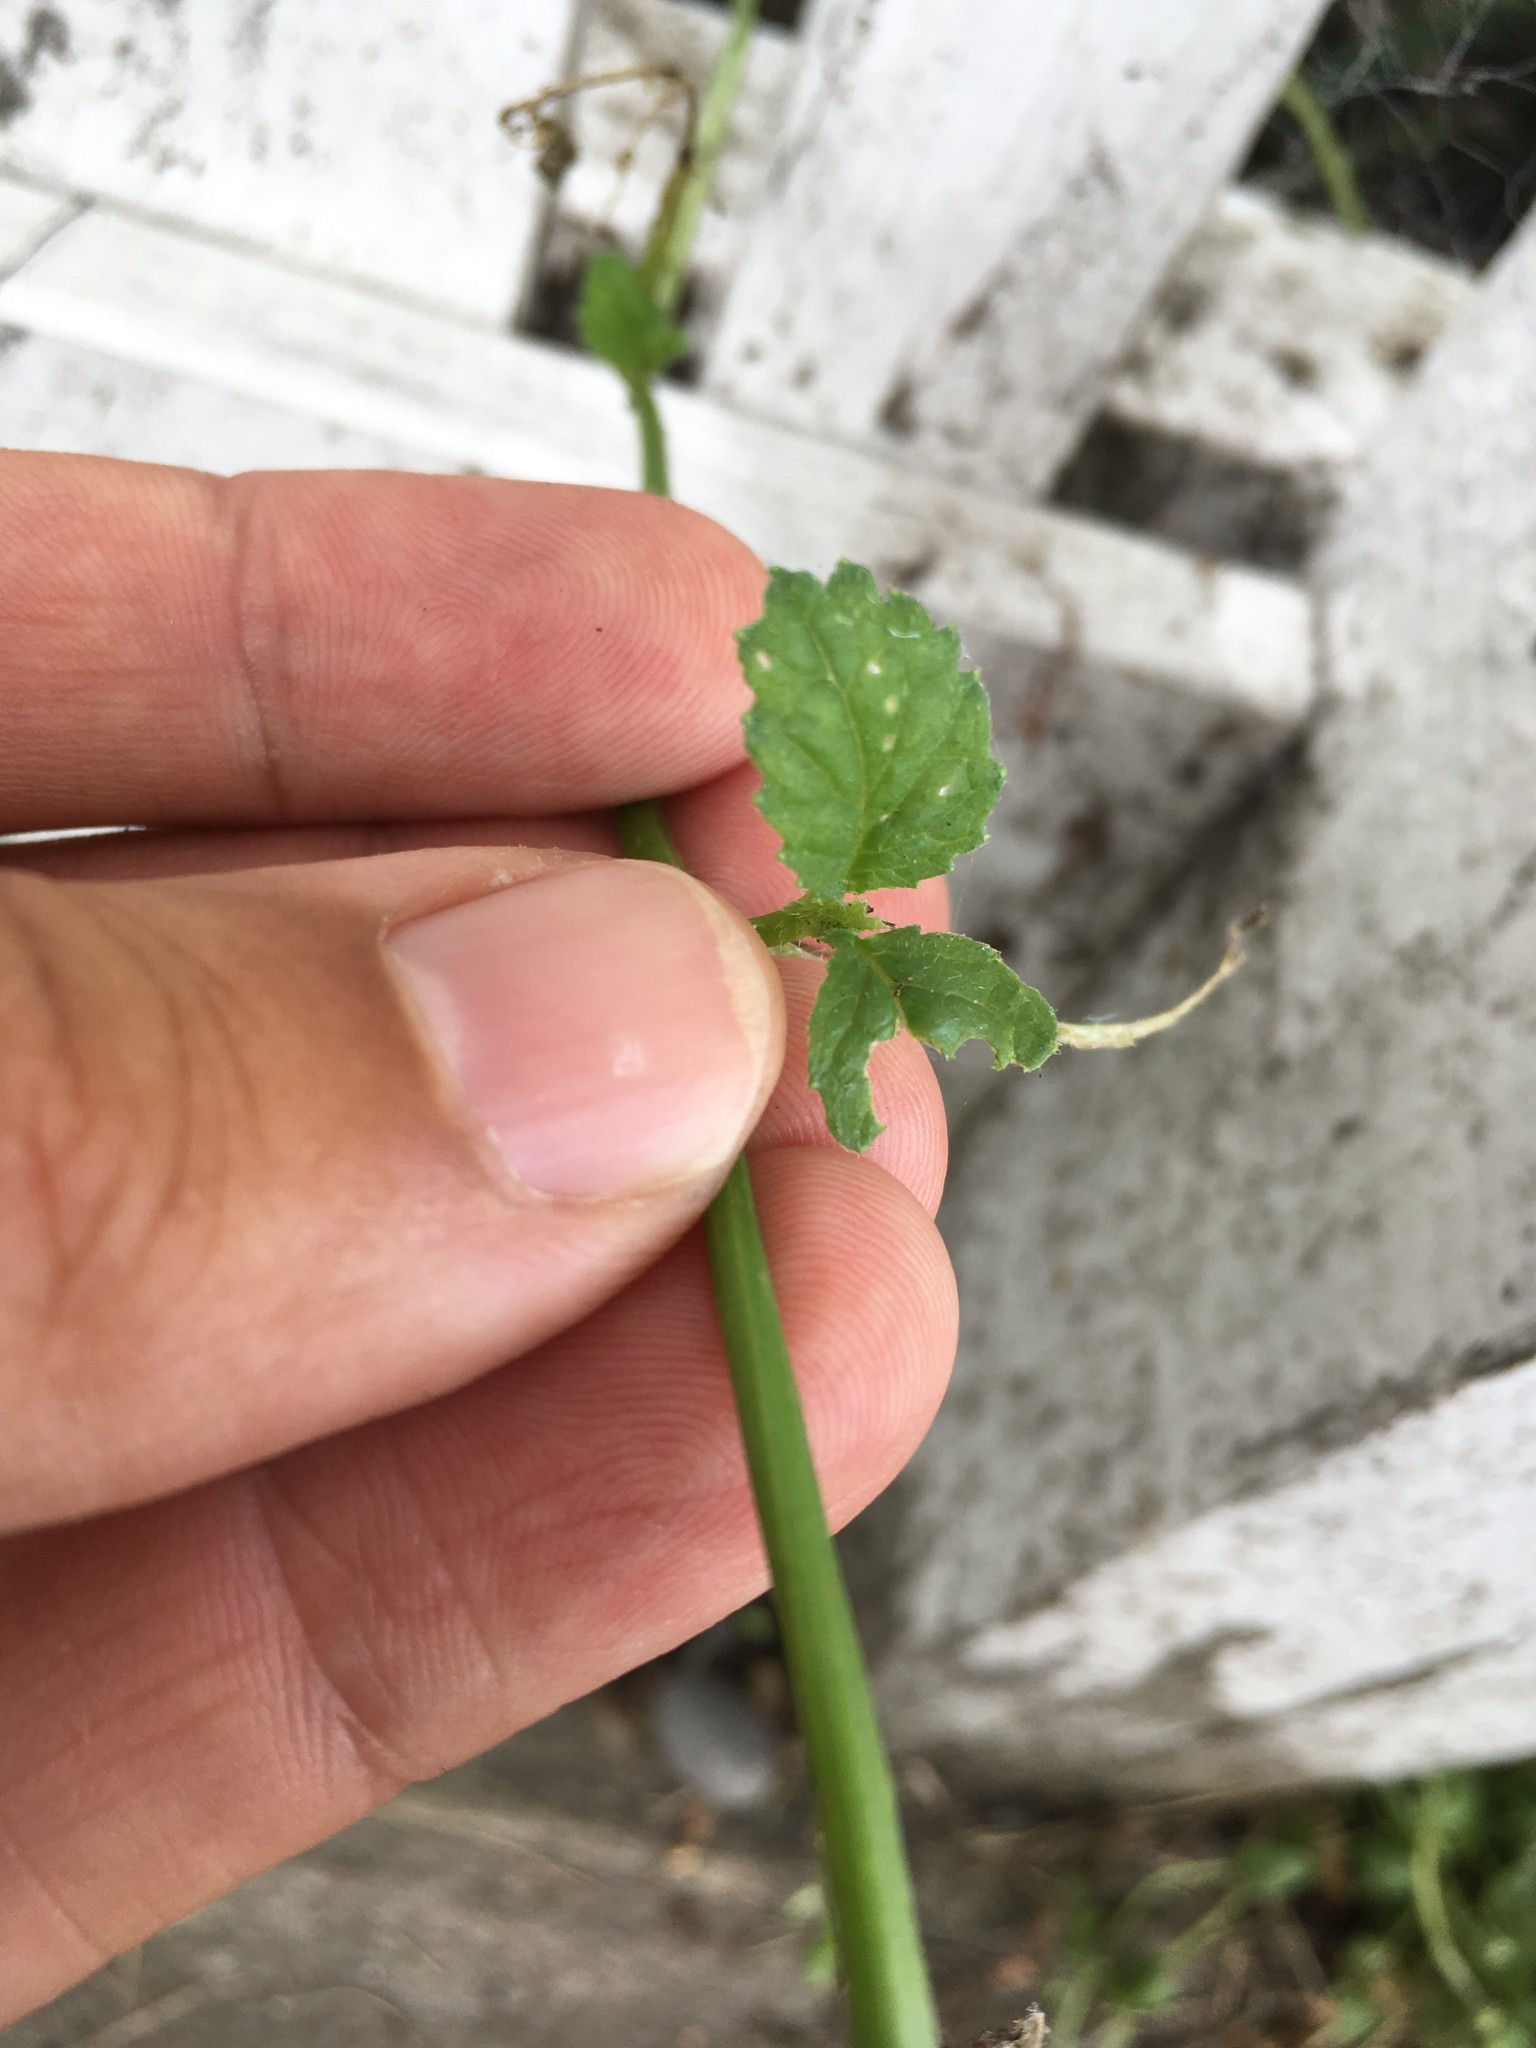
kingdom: Plantae
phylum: Tracheophyta
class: Magnoliopsida
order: Brassicales
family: Brassicaceae
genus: Raphanus
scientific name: Raphanus raphanistrum
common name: Wild radish
